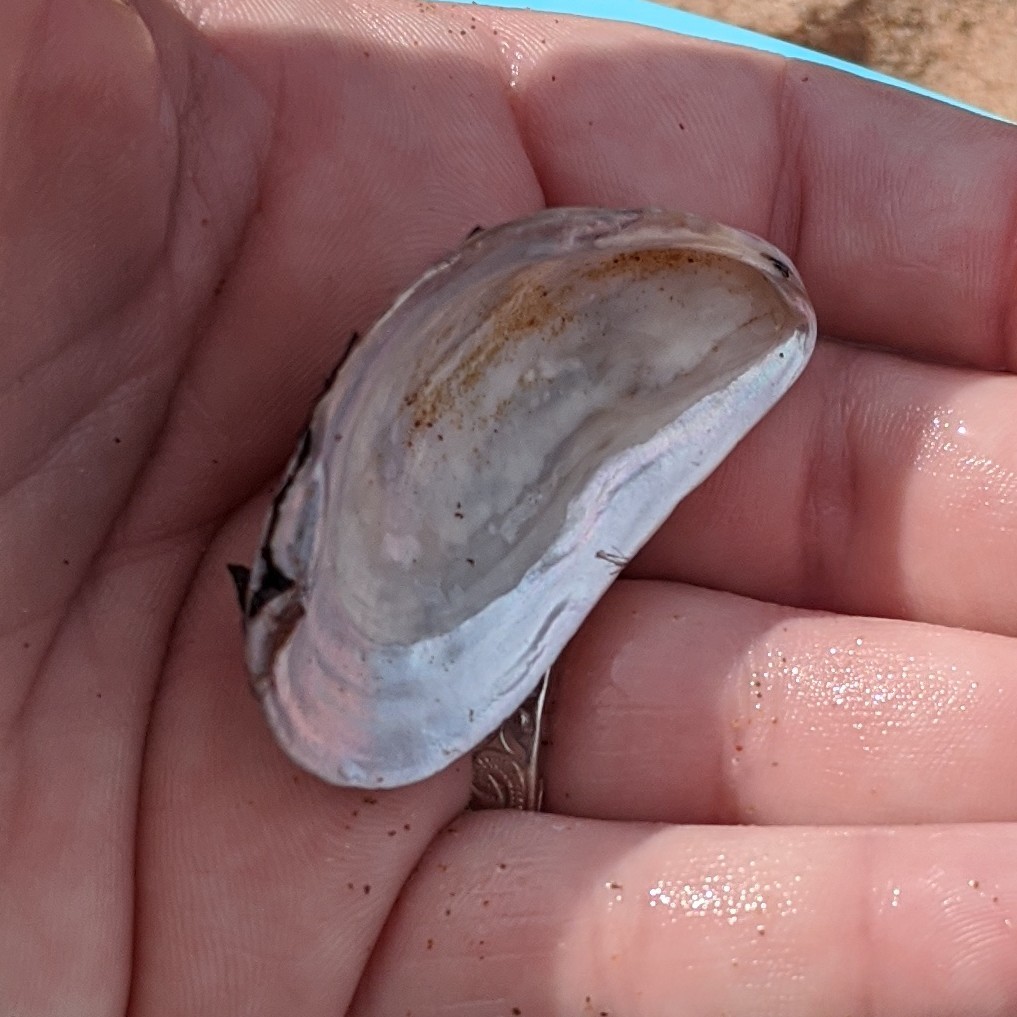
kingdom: Animalia
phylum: Mollusca
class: Bivalvia
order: Mytilida
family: Mytilidae
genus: Modiolus
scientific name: Modiolus modiolus
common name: Horse-mussel
